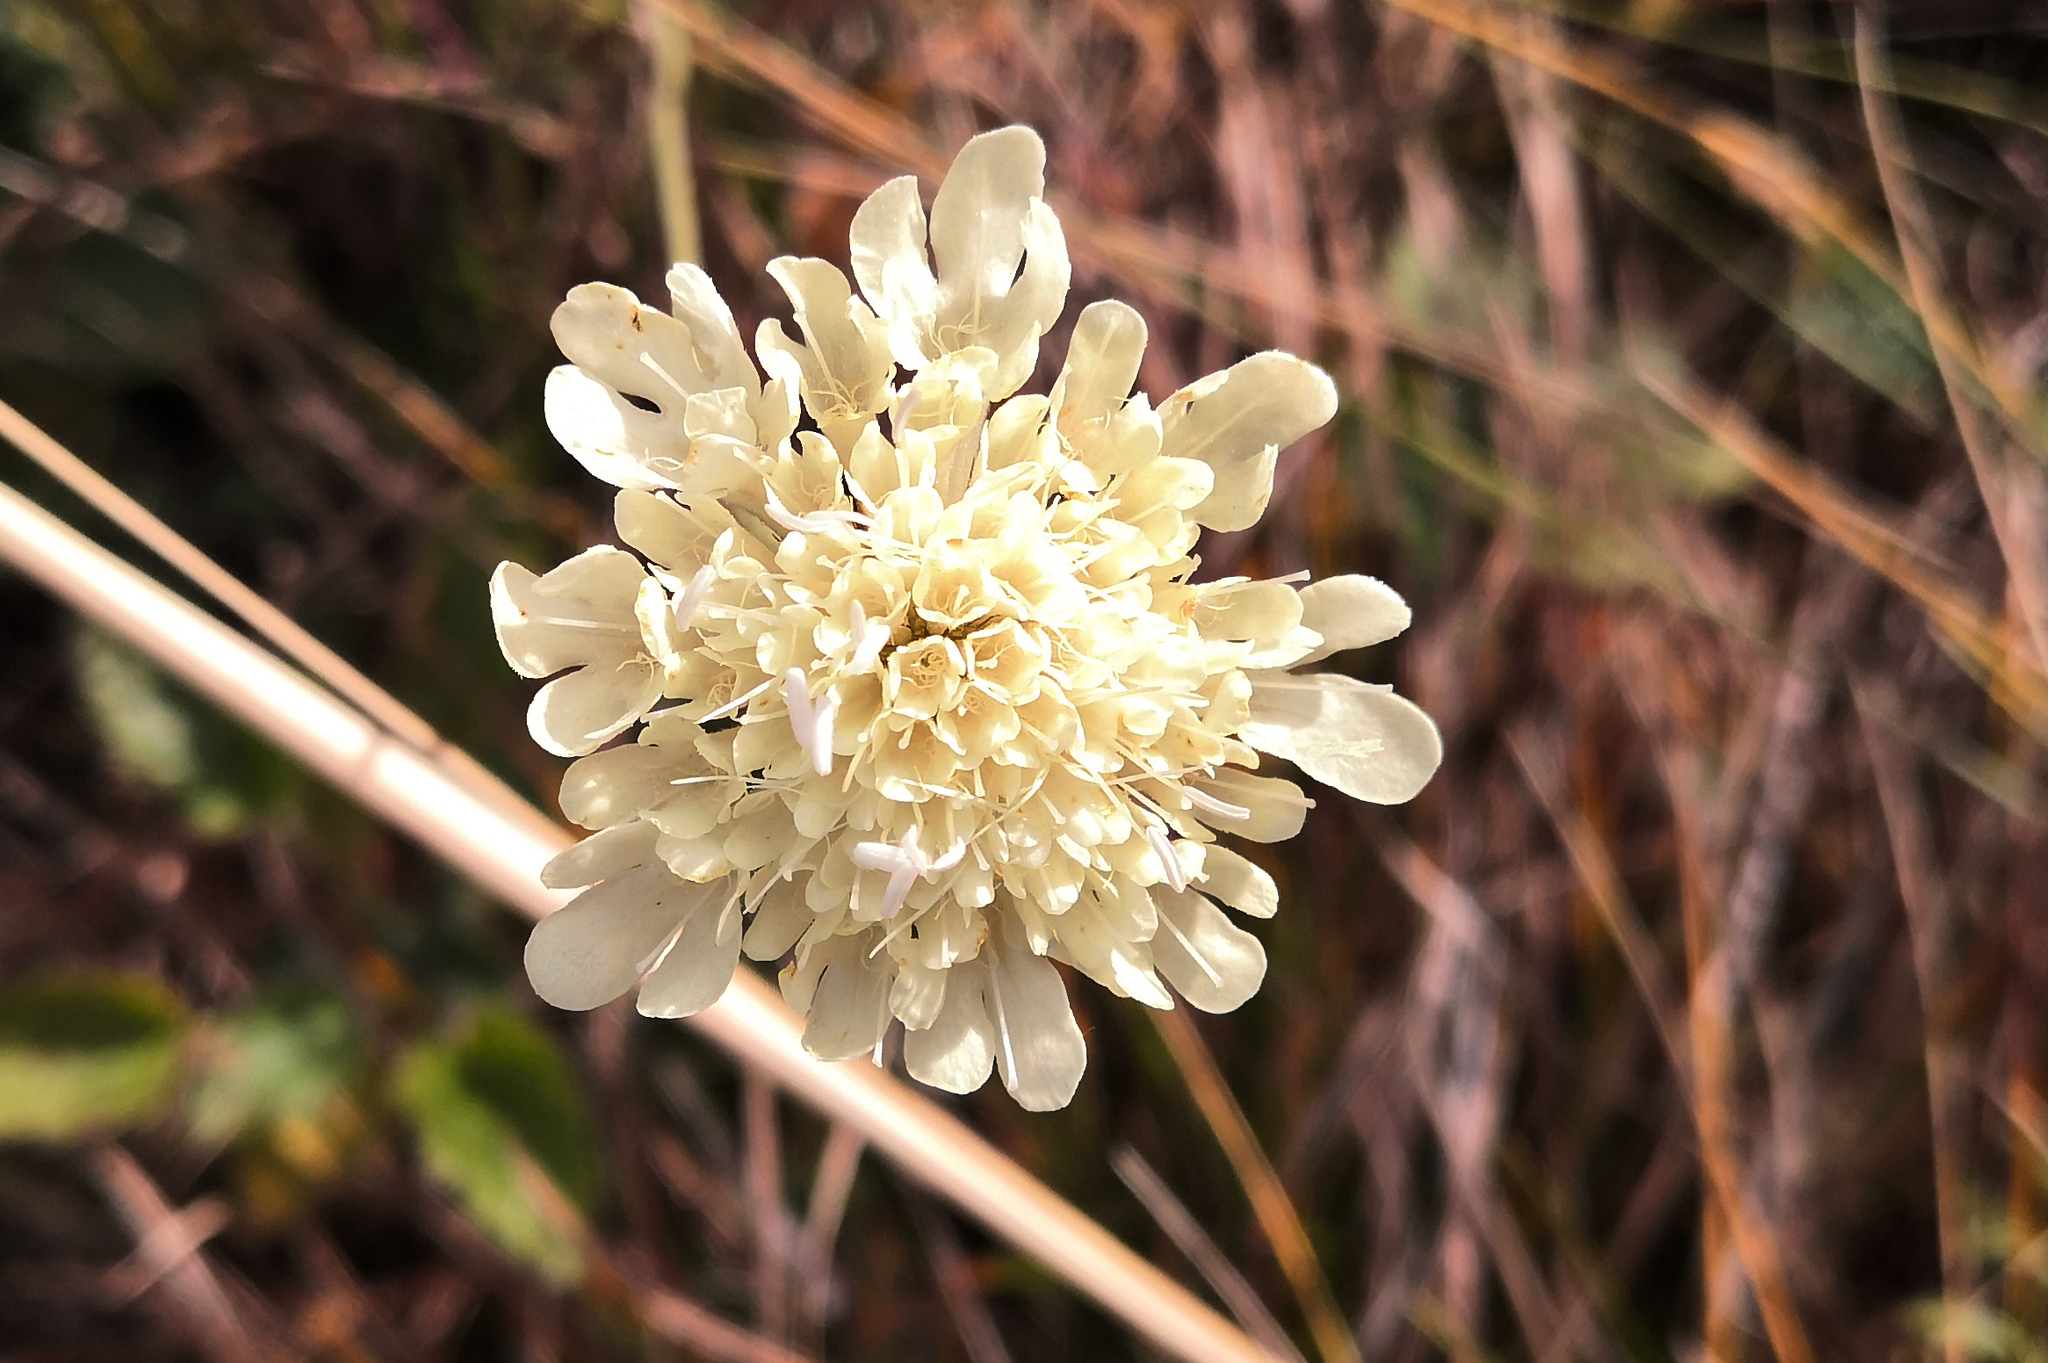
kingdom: Plantae
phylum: Tracheophyta
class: Magnoliopsida
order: Dipsacales
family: Caprifoliaceae
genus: Scabiosa
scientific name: Scabiosa ochroleuca
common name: Cream pincushions
